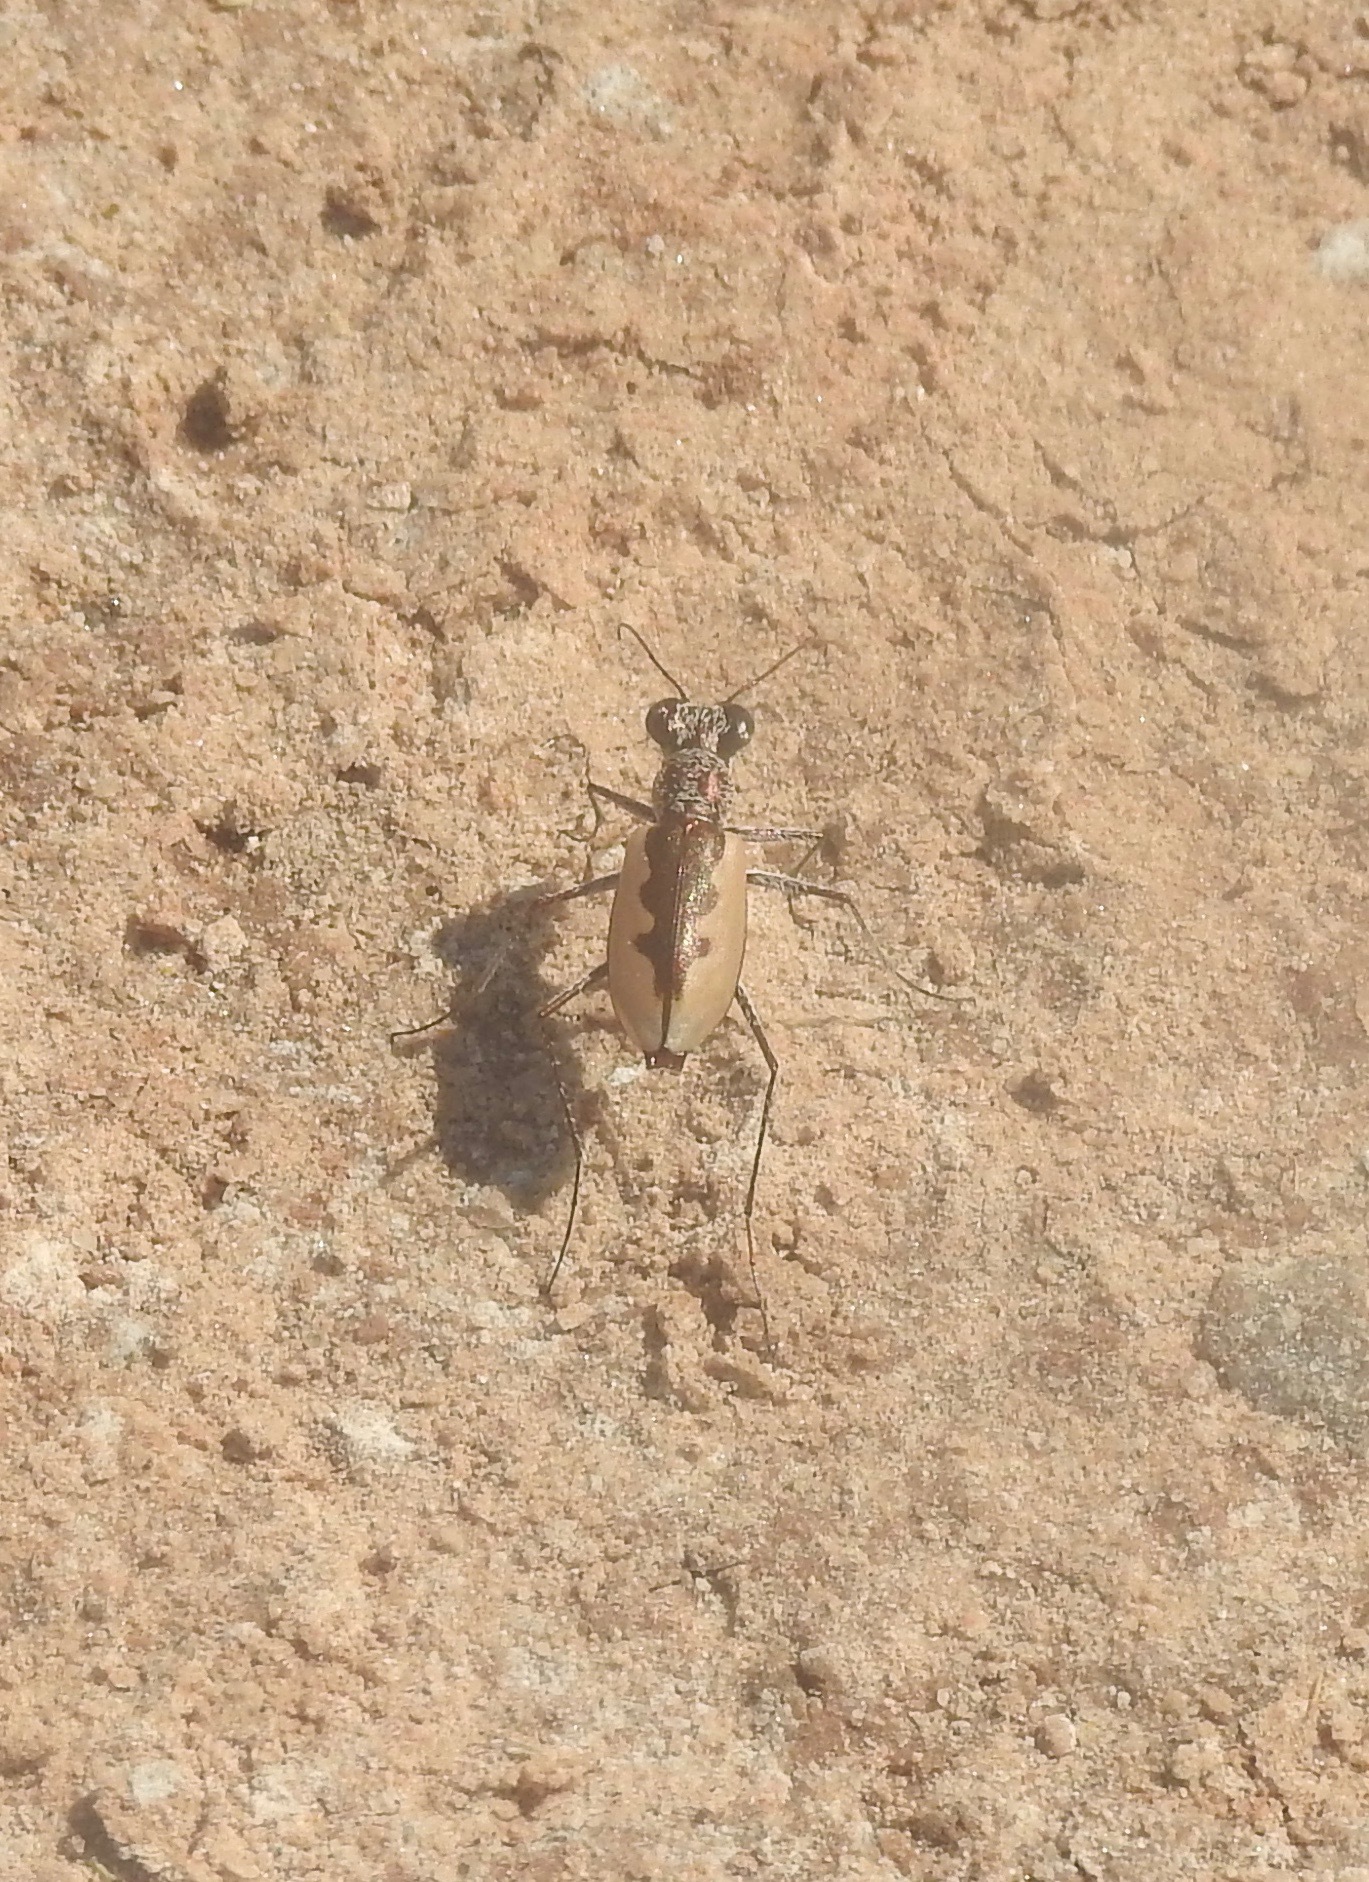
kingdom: Animalia
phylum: Arthropoda
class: Insecta
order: Coleoptera
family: Carabidae
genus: Eunota
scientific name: Eunota togata
